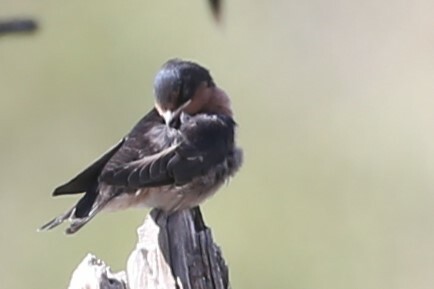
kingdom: Animalia
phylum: Chordata
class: Aves
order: Passeriformes
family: Hirundinidae
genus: Hirundo
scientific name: Hirundo neoxena
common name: Welcome swallow
